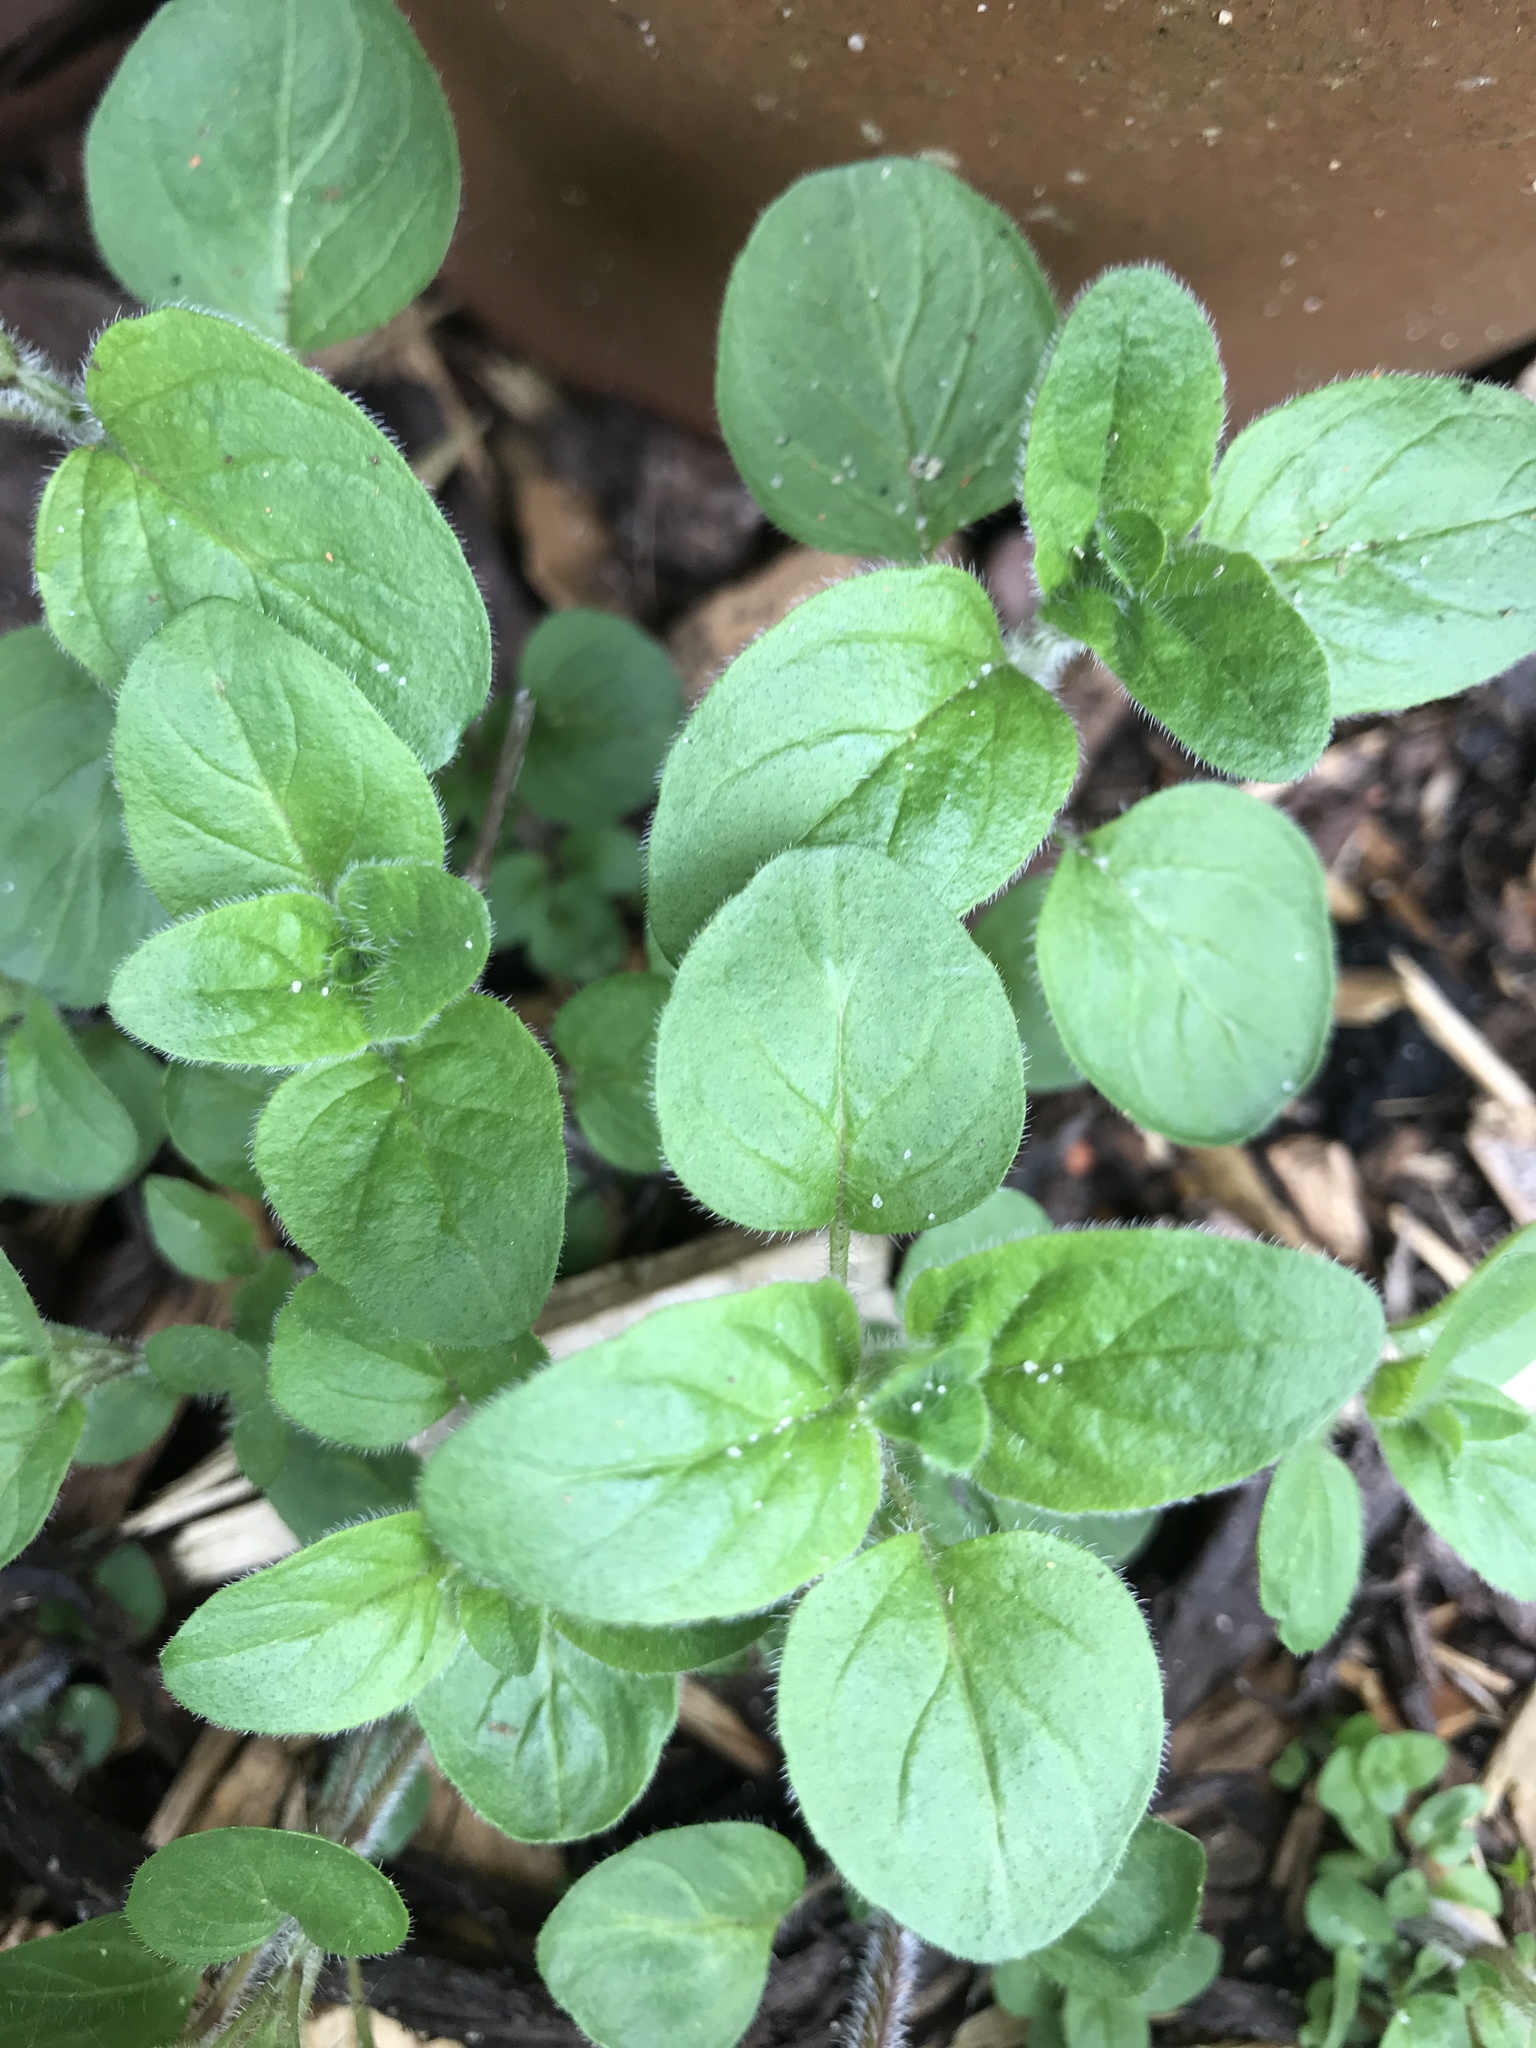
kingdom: Plantae
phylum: Tracheophyta
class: Magnoliopsida
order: Lamiales
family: Lamiaceae
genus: Origanum
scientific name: Origanum vulgare
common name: Wild marjoram
